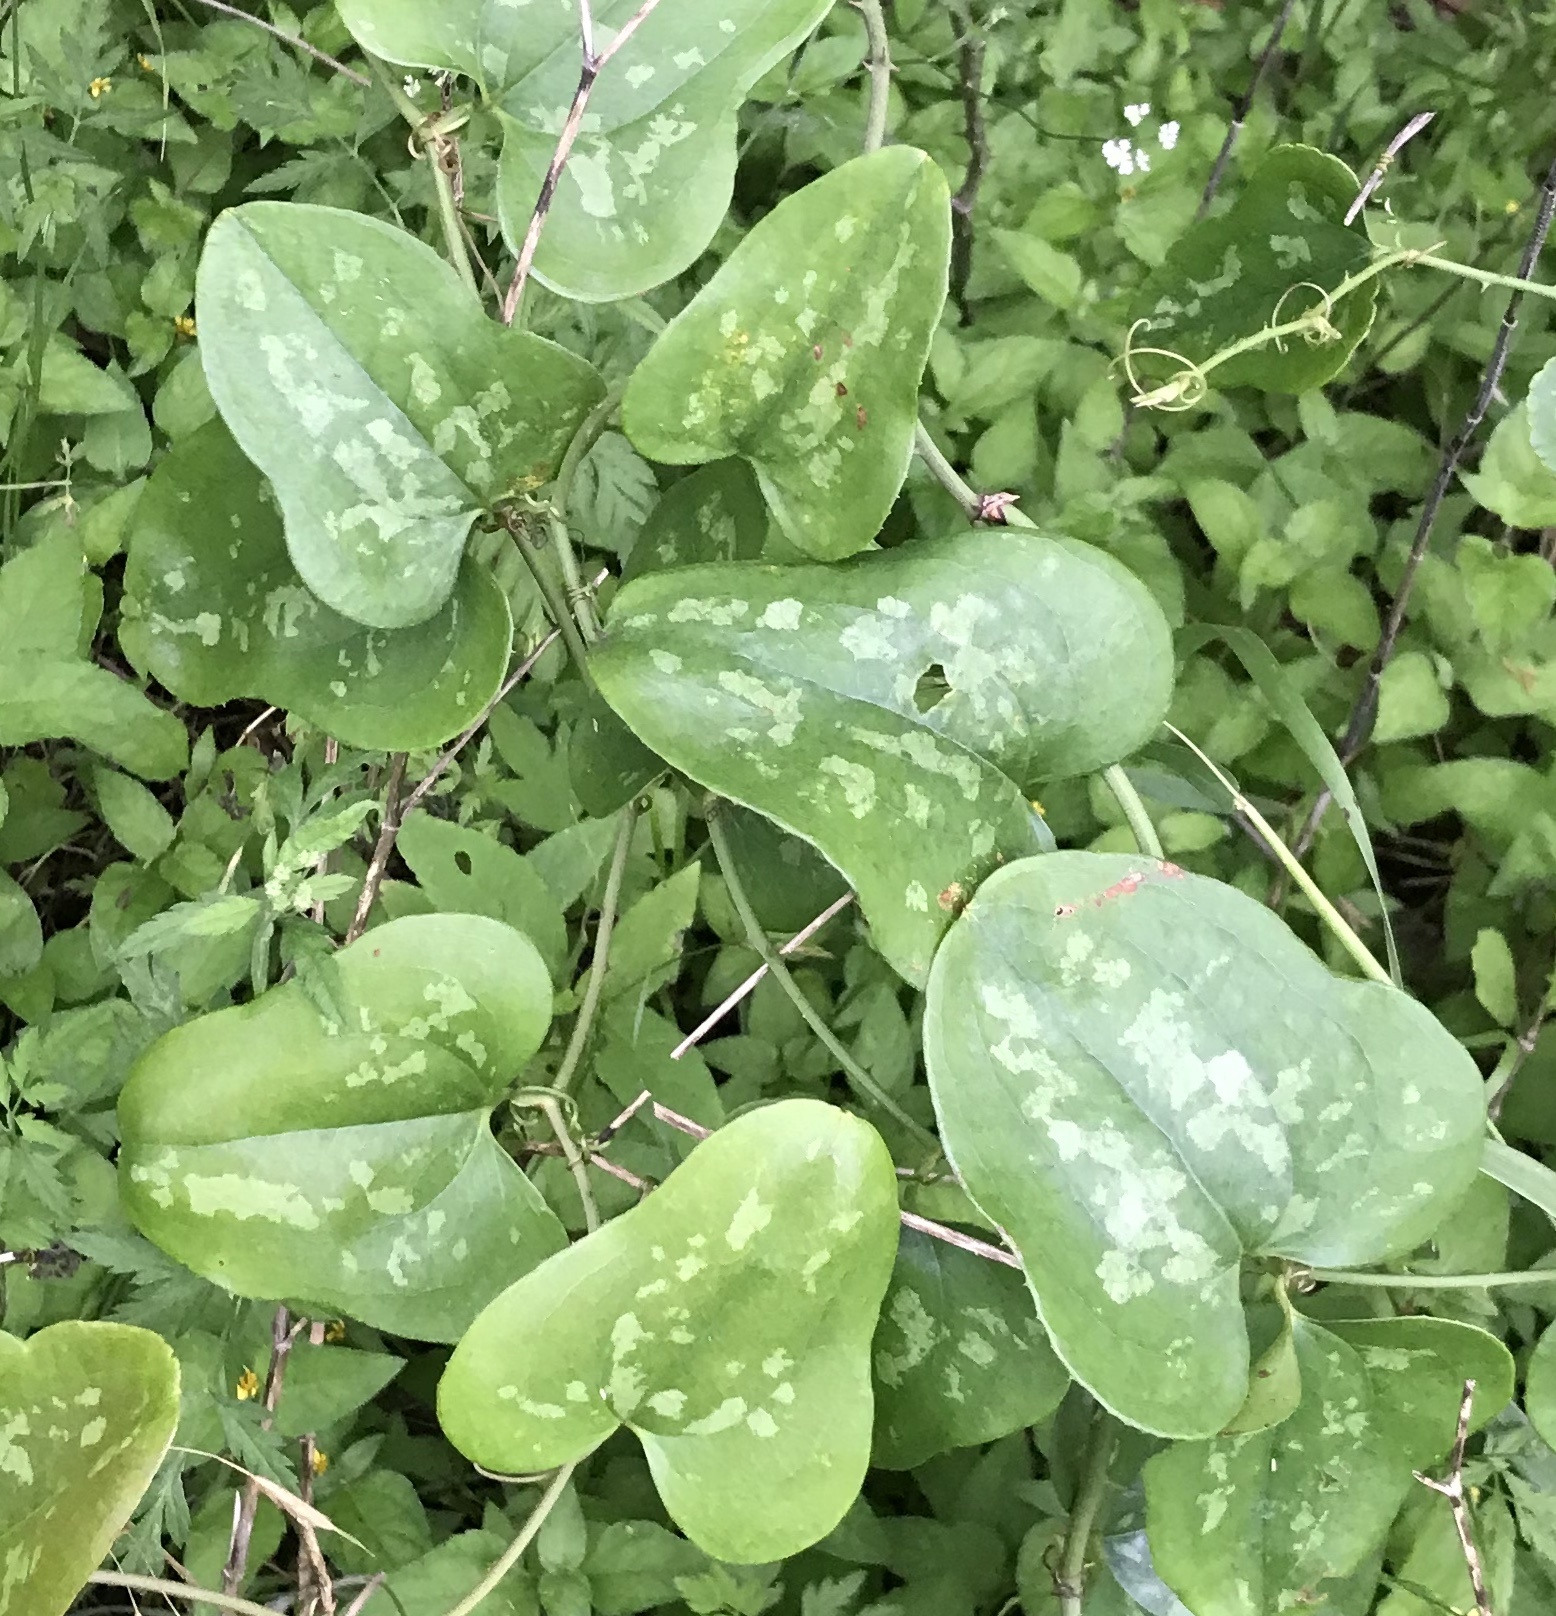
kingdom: Plantae
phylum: Tracheophyta
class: Liliopsida
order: Liliales
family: Smilacaceae
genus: Smilax
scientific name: Smilax bona-nox
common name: Catbrier
